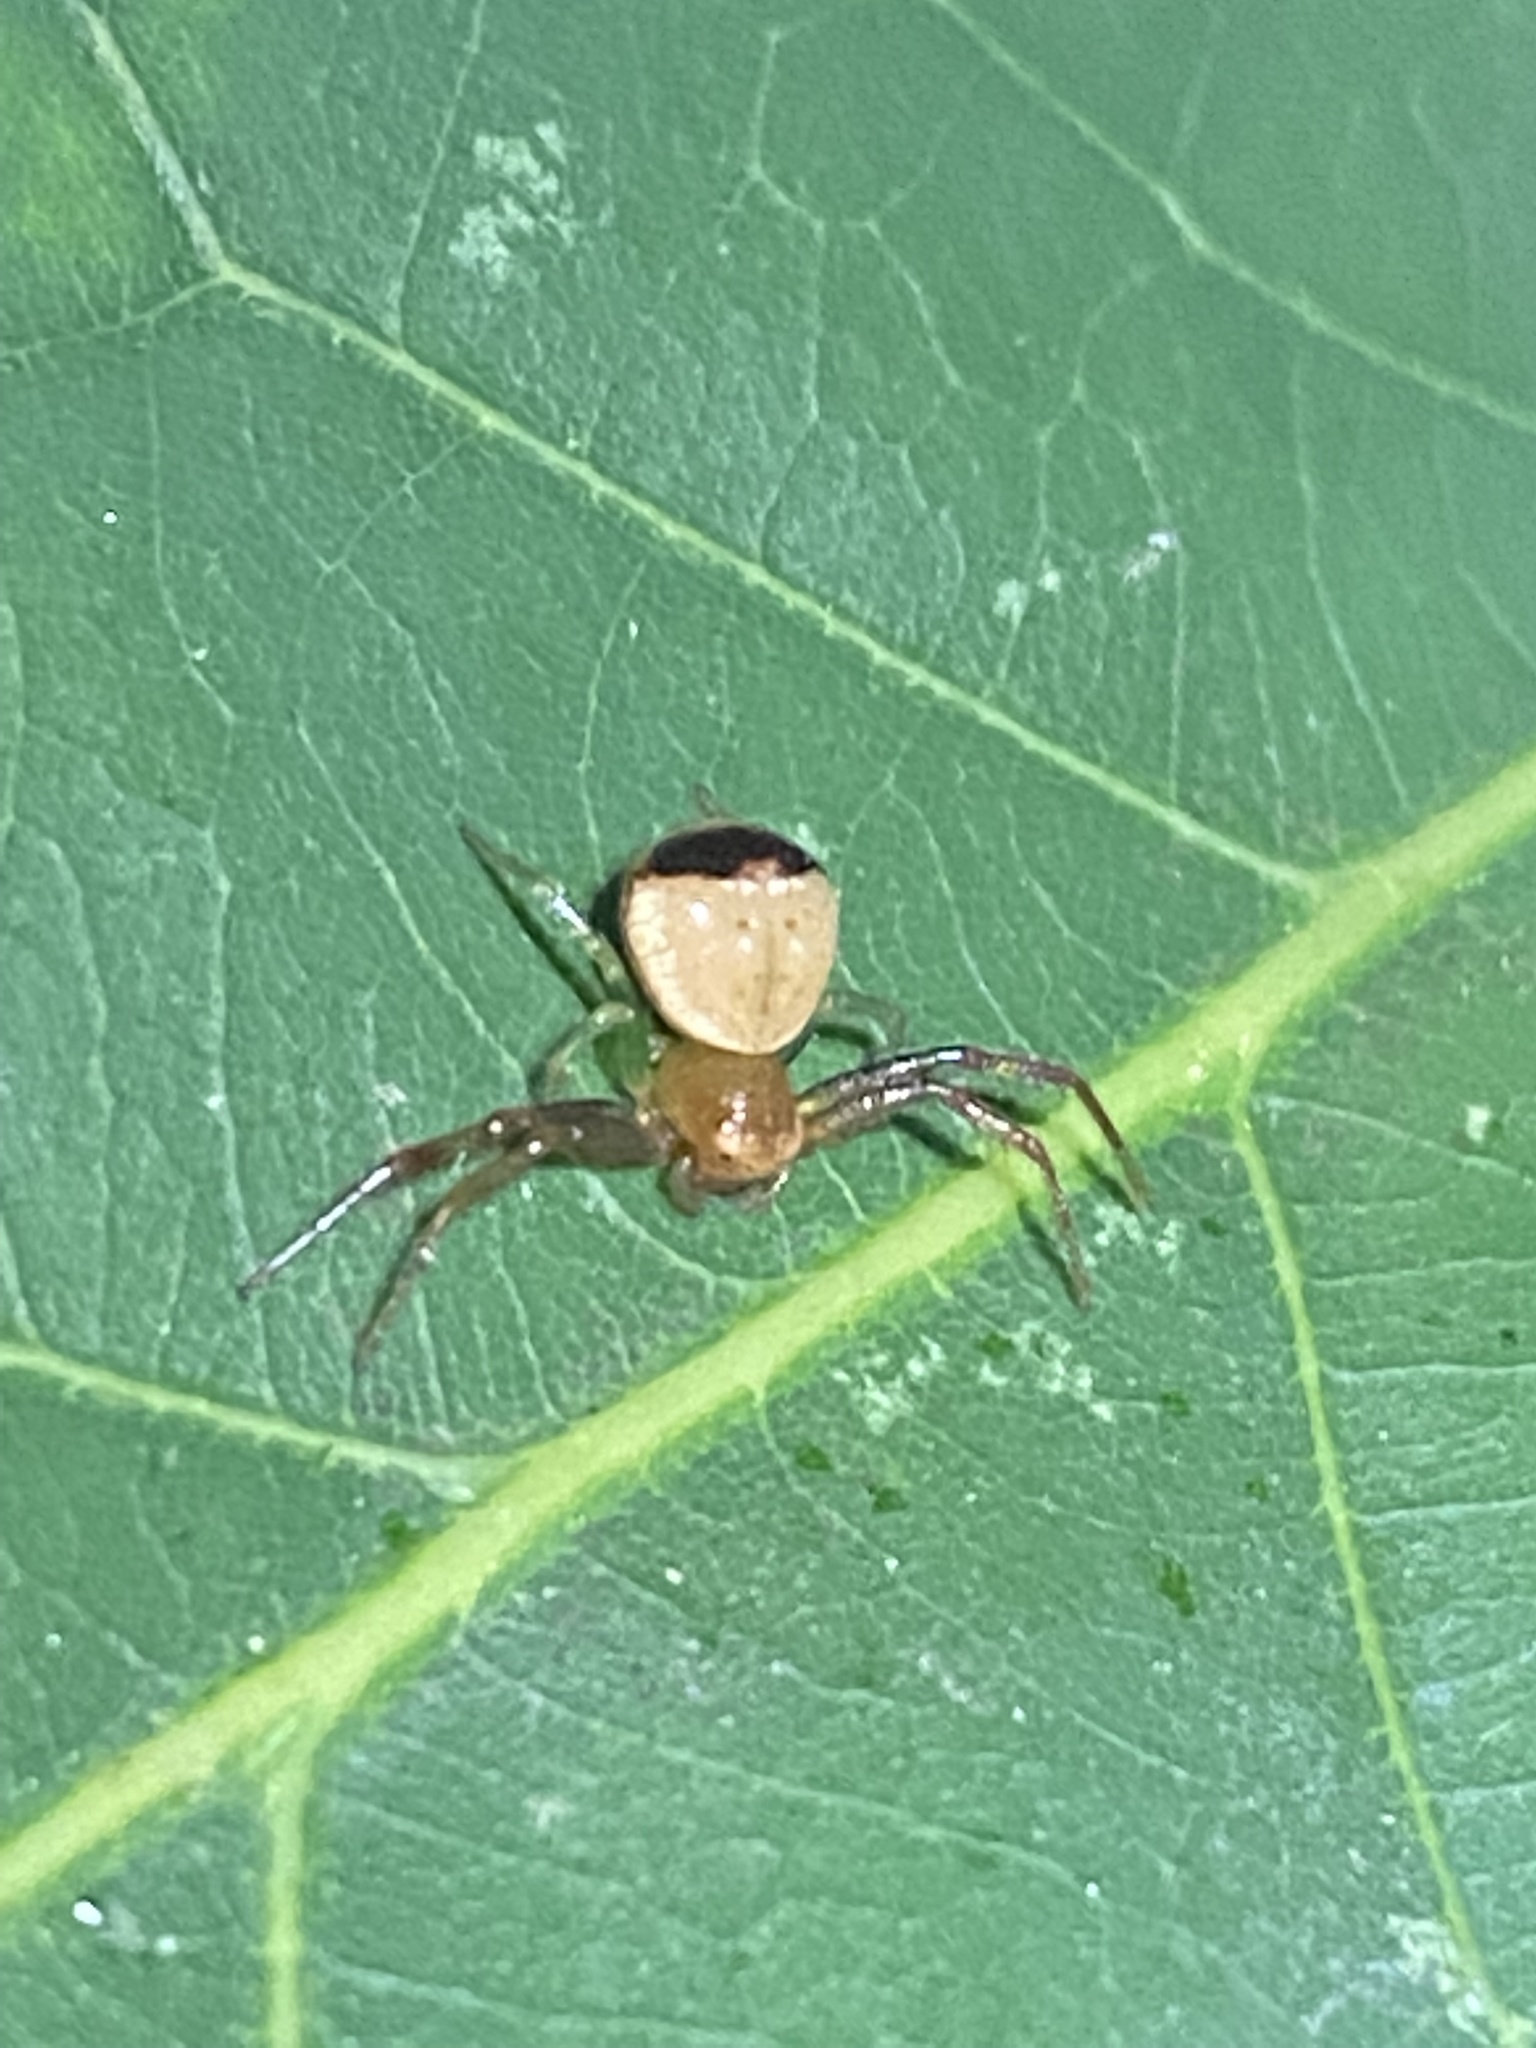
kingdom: Animalia
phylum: Arthropoda
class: Arachnida
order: Araneae
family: Thomisidae
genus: Synema
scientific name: Synema parvulum
